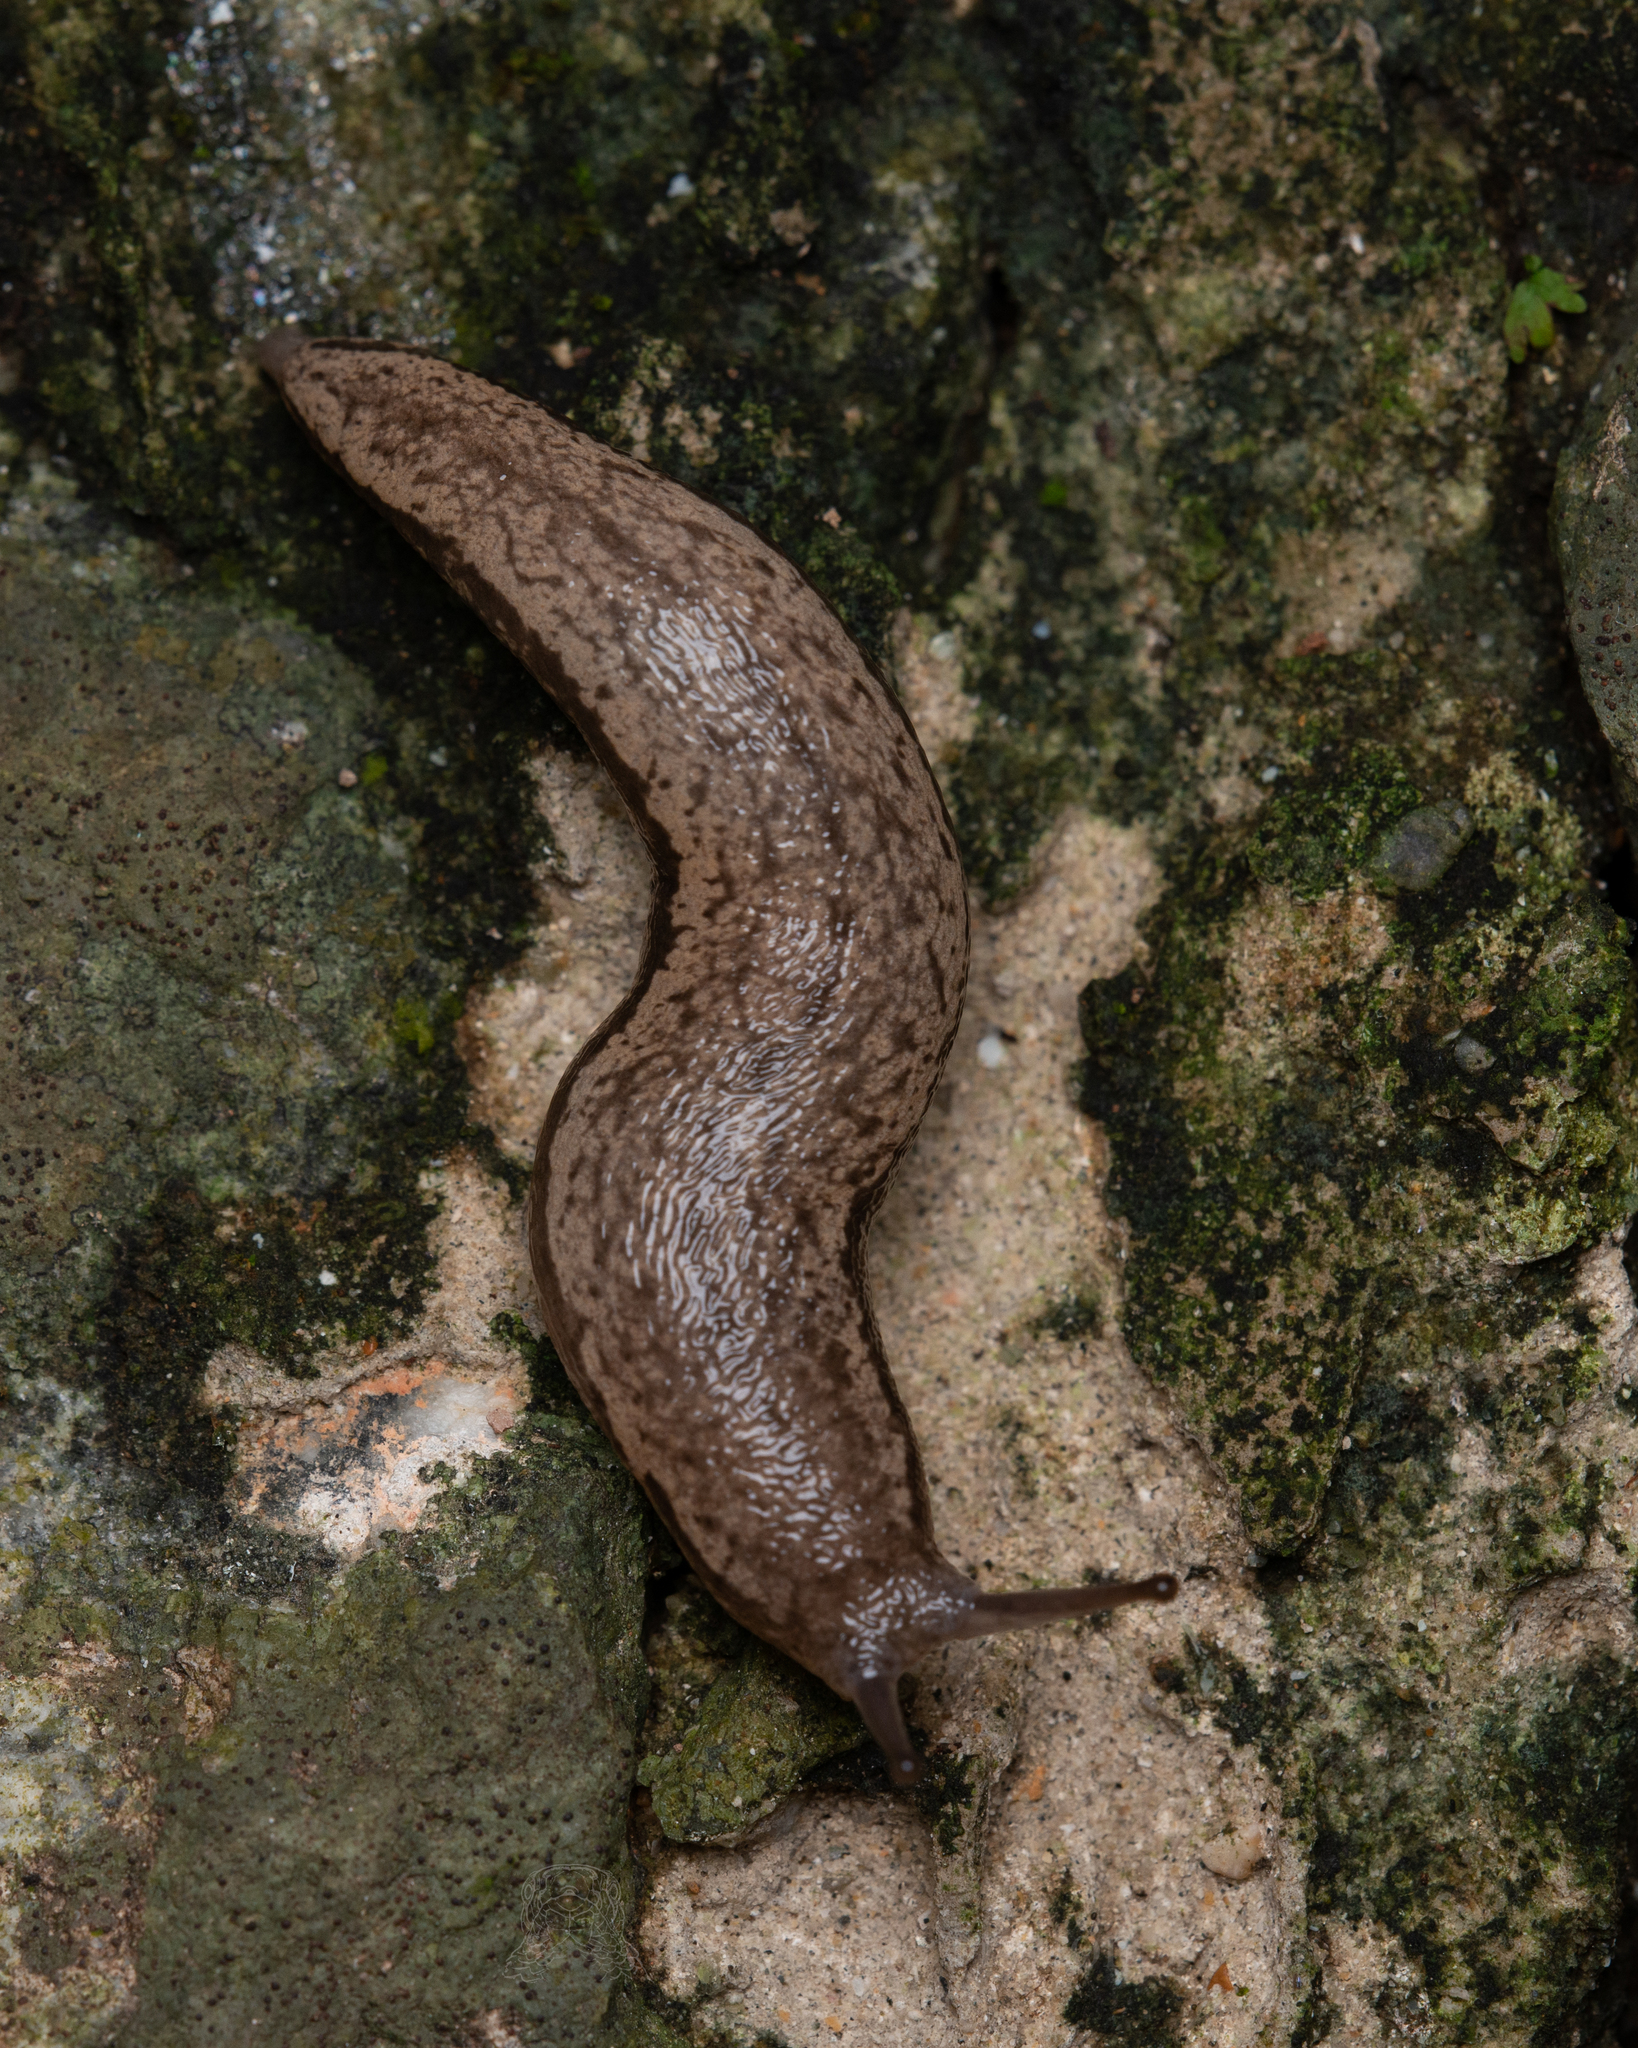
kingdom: Animalia
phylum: Mollusca
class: Gastropoda
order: Stylommatophora
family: Philomycidae
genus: Meghimatium
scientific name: Meghimatium bilineatum
